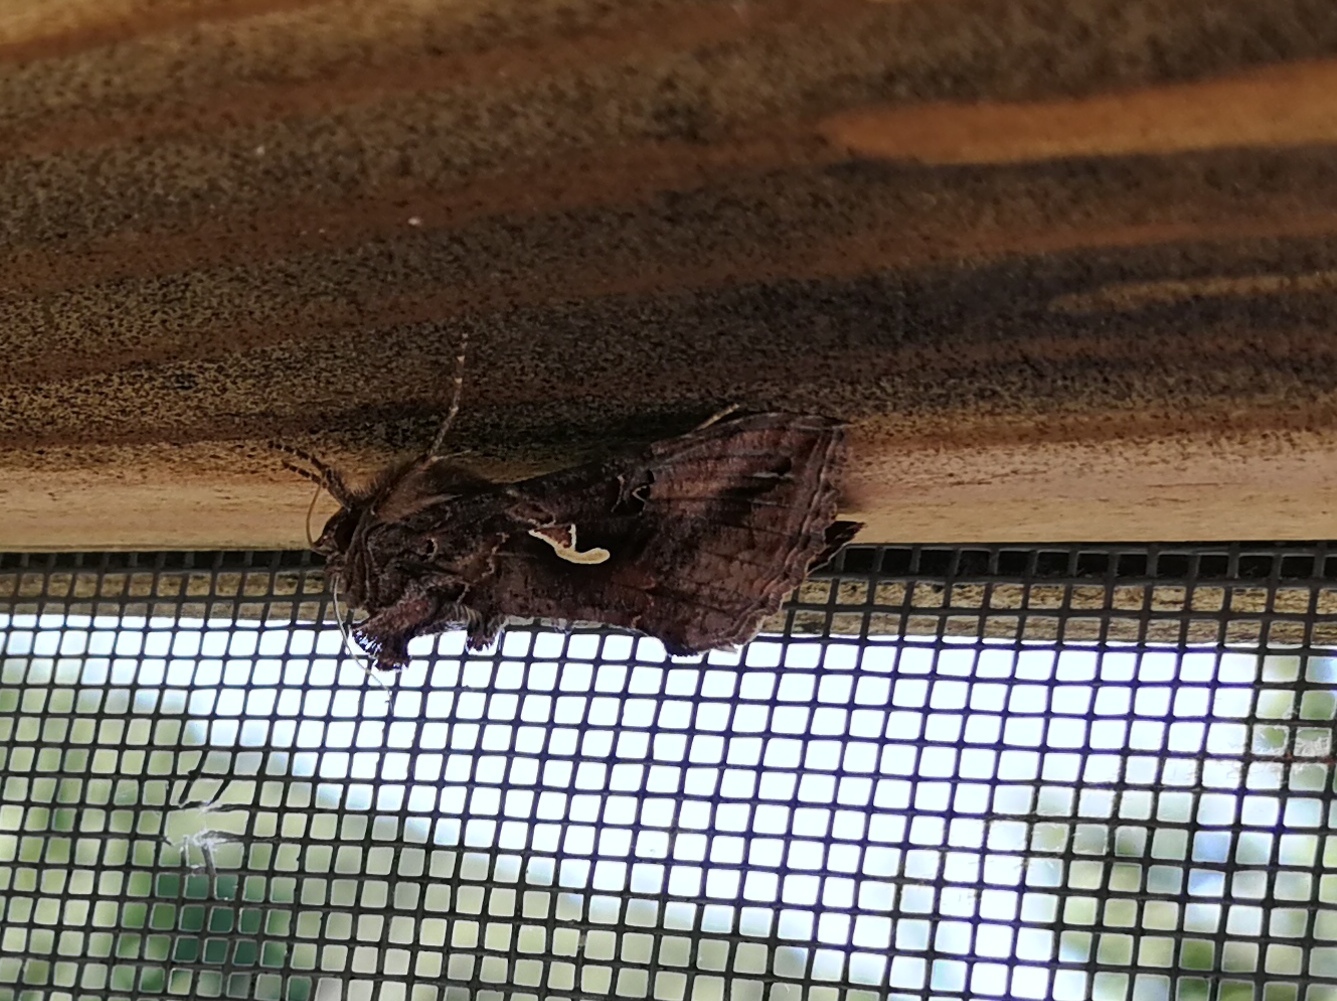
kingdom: Animalia
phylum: Arthropoda
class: Insecta
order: Lepidoptera
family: Noctuidae
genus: Autographa
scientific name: Autographa gamma
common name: Silver y
